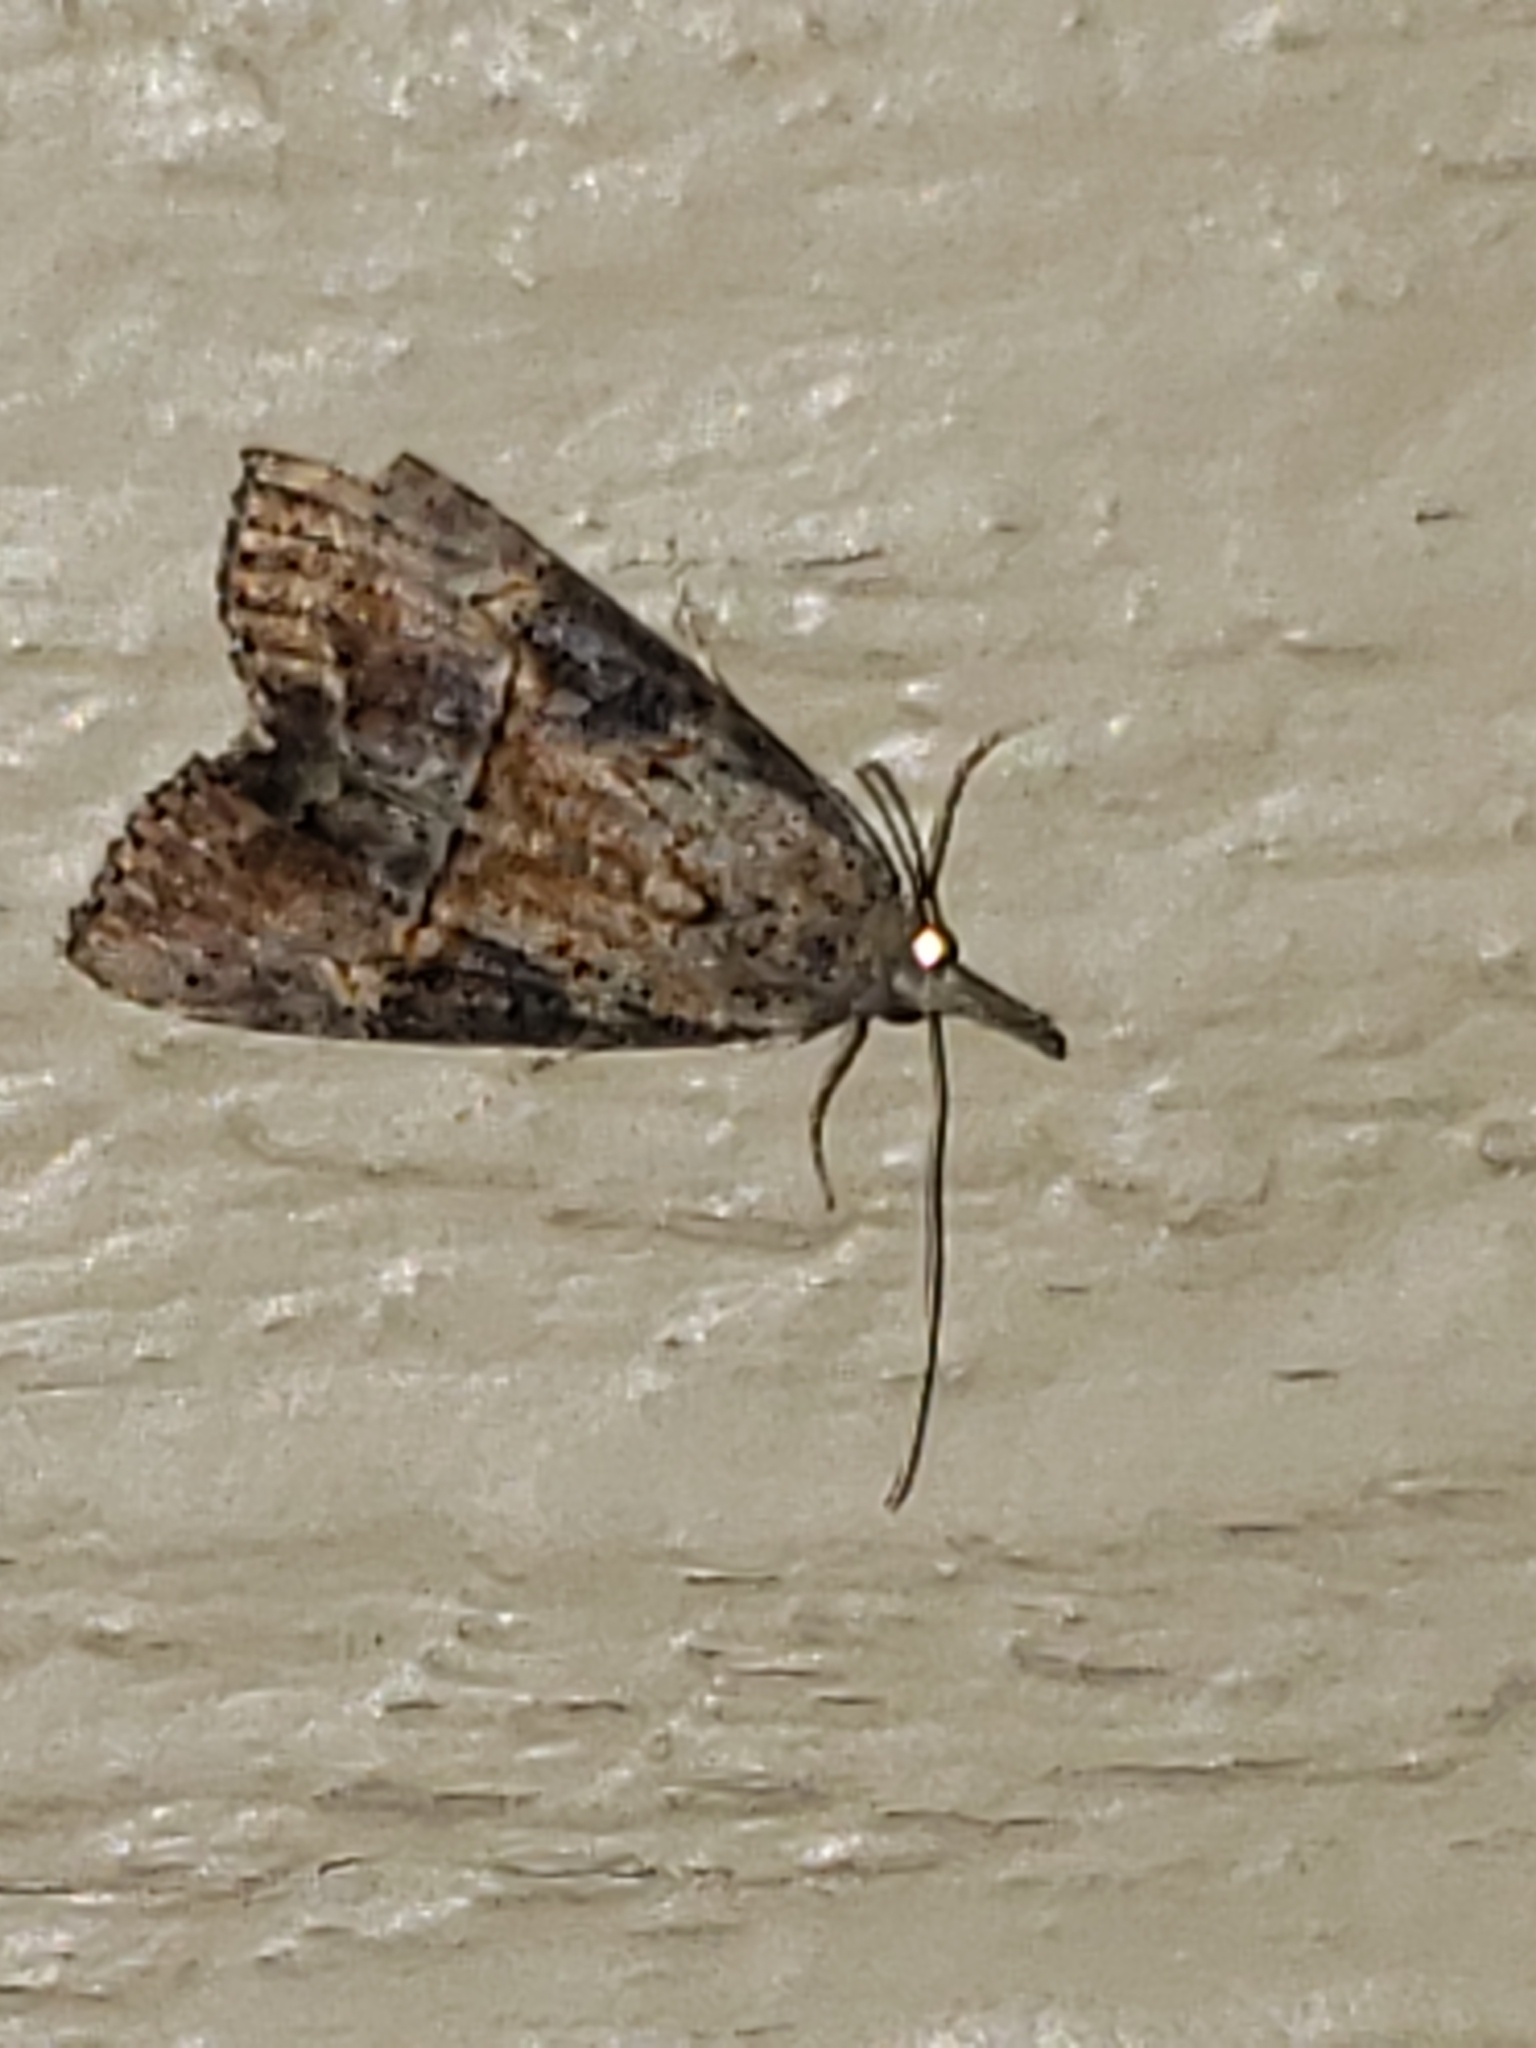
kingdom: Animalia
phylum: Arthropoda
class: Insecta
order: Lepidoptera
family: Erebidae
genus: Hypena
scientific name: Hypena scabra
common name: Green cloverworm
